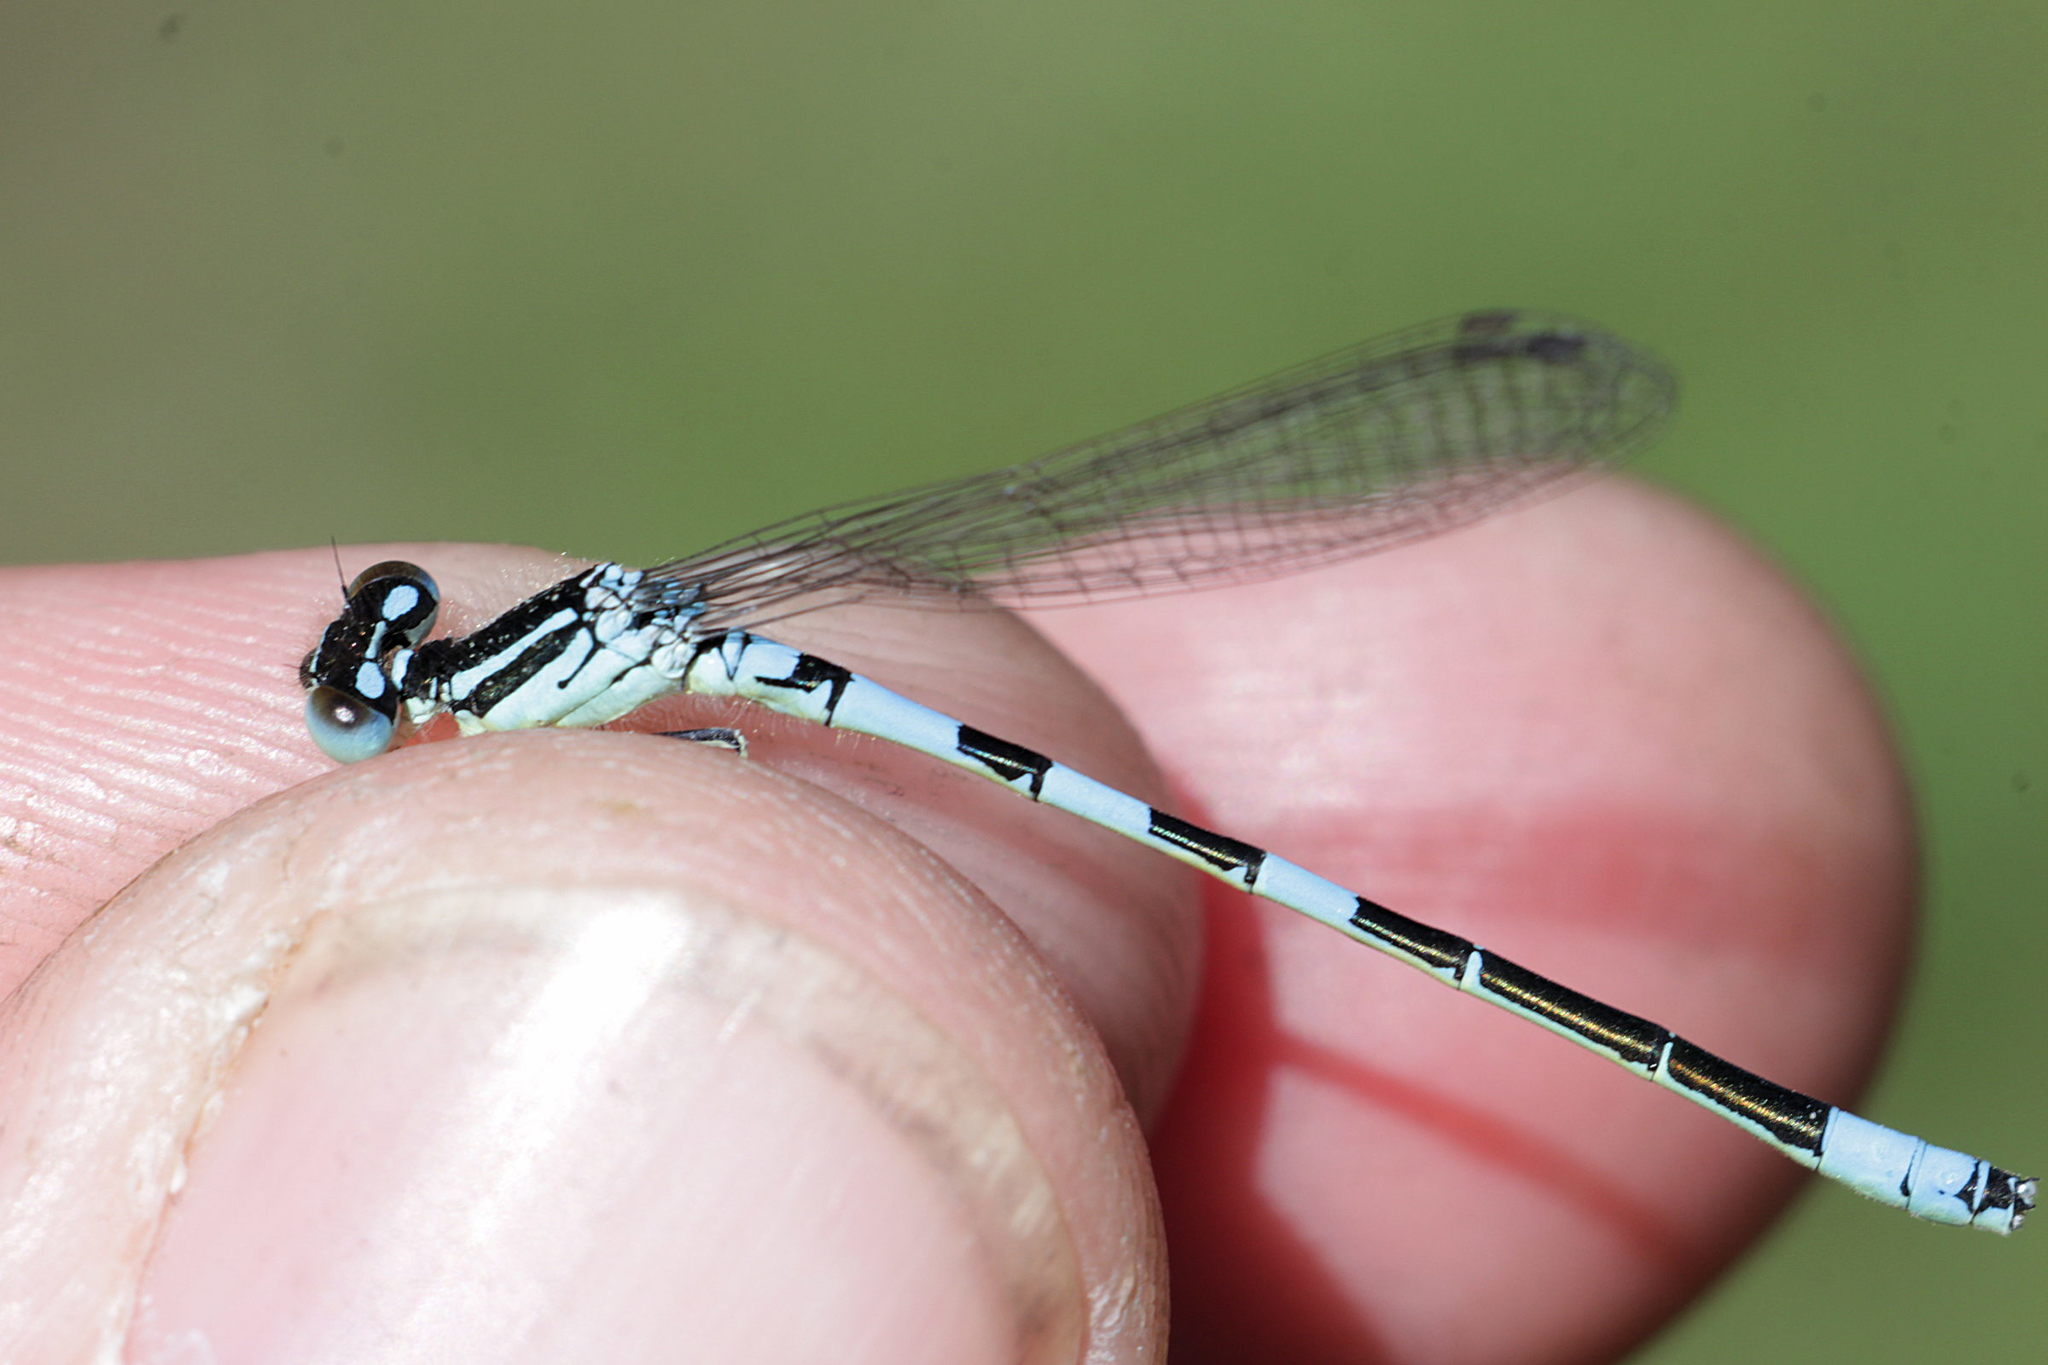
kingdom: Animalia
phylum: Arthropoda
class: Insecta
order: Odonata
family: Coenagrionidae
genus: Coenagrion
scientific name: Coenagrion scitulum
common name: Dainty bluet
